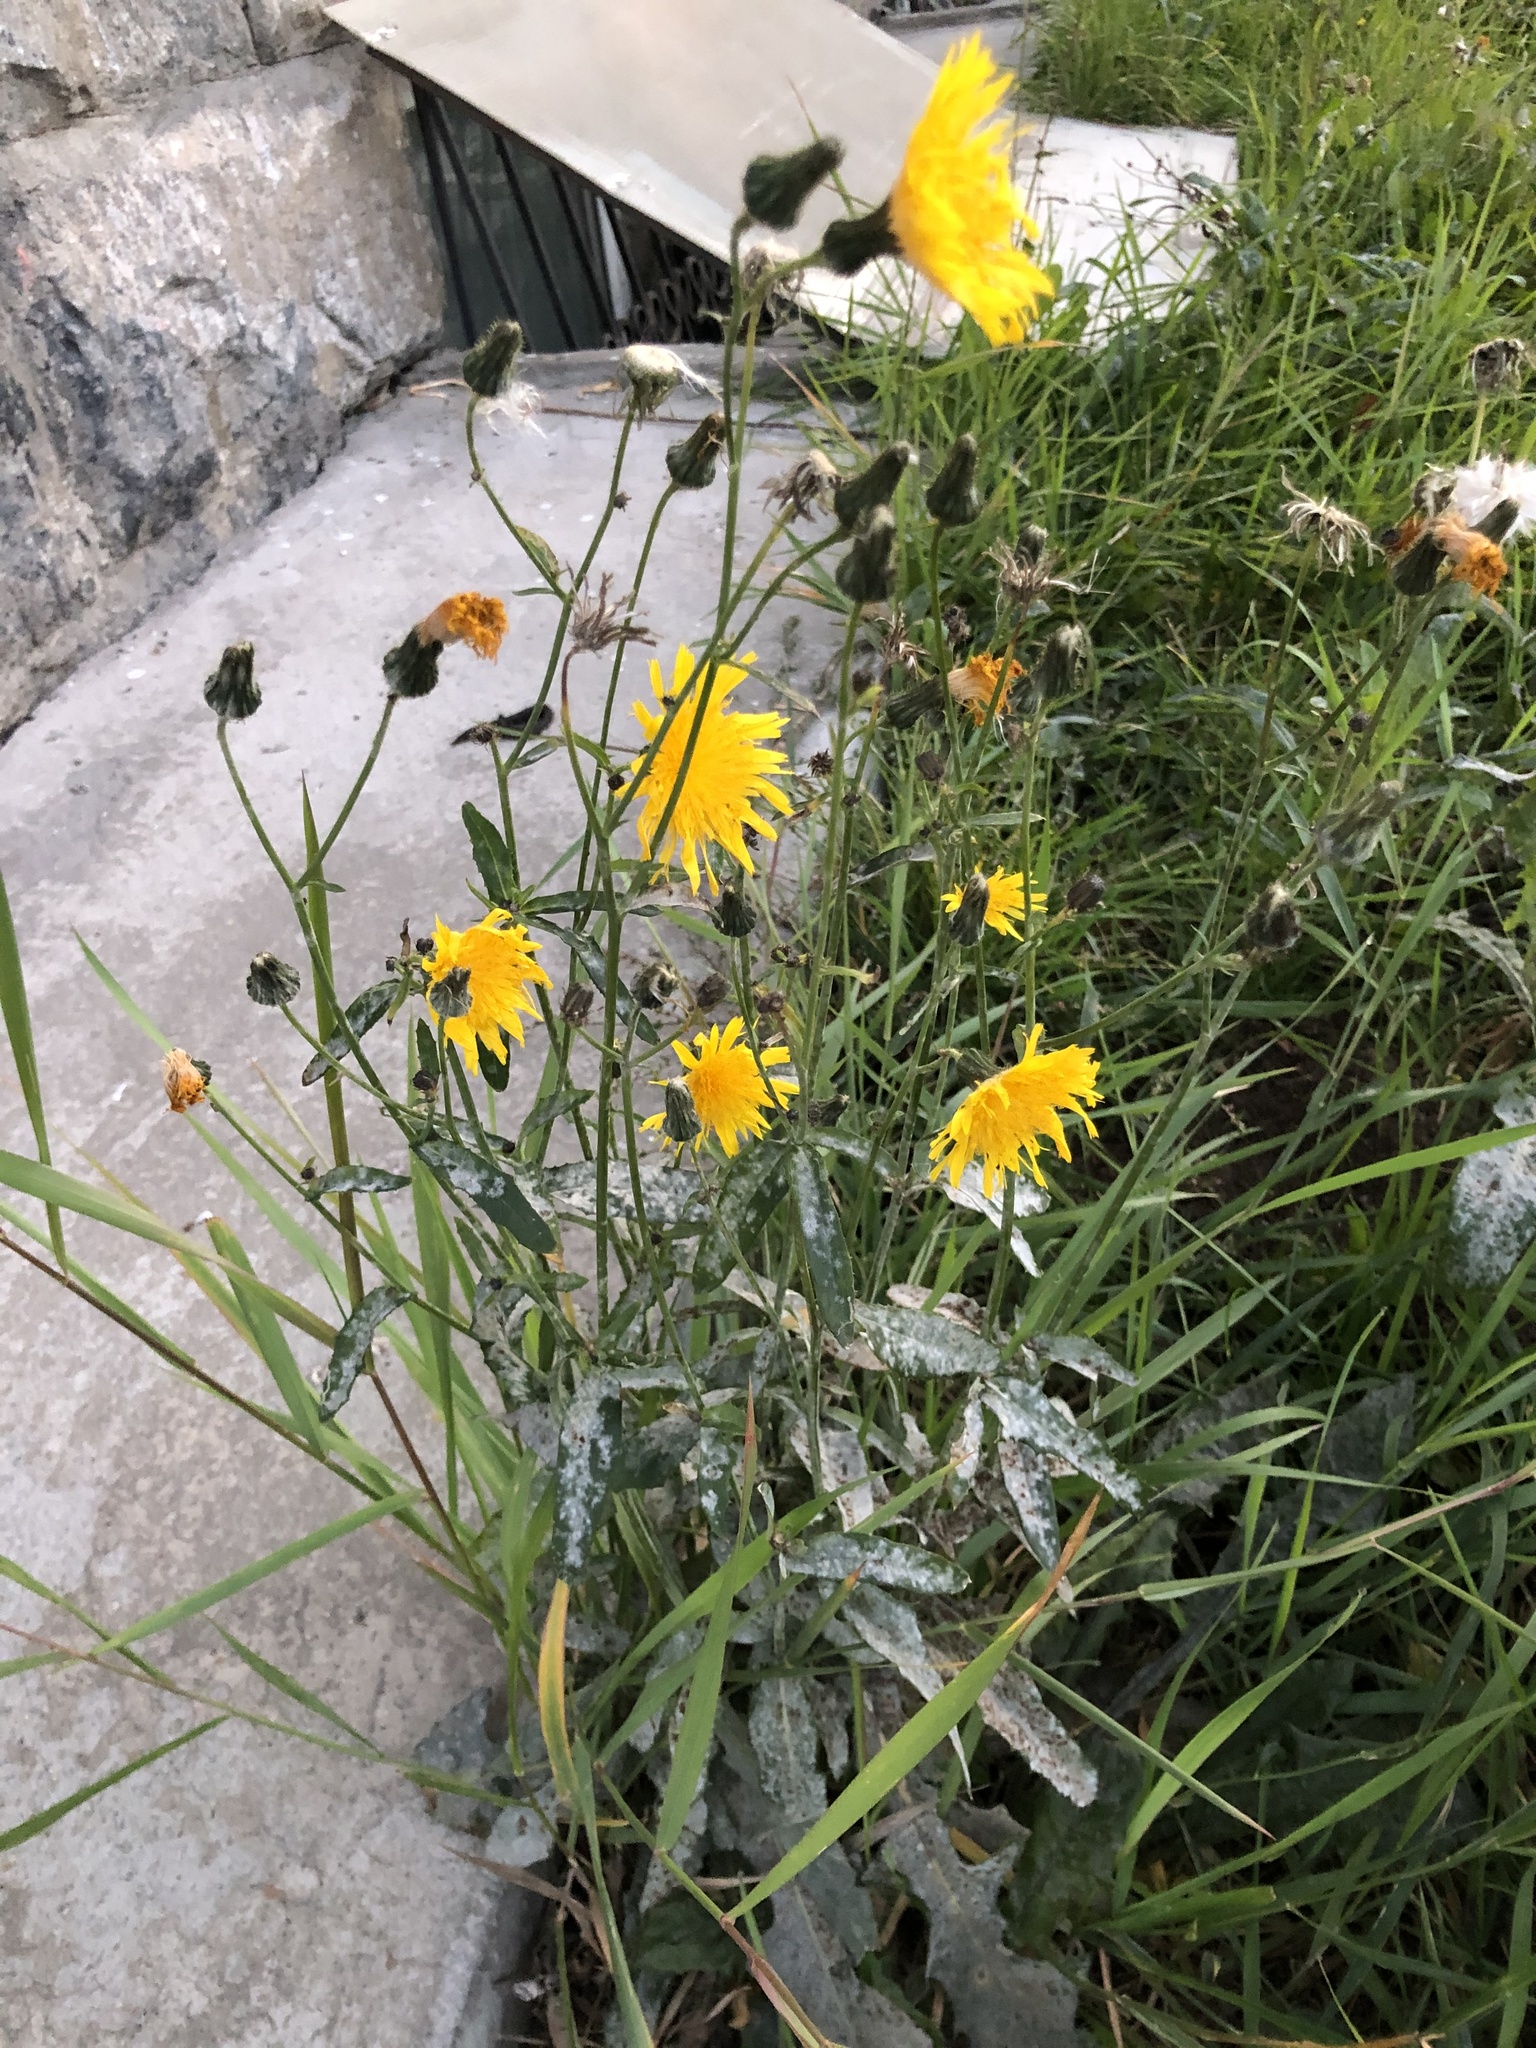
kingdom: Plantae
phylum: Tracheophyta
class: Magnoliopsida
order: Asterales
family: Asteraceae
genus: Sonchus
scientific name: Sonchus arvensis
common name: Perennial sow-thistle
